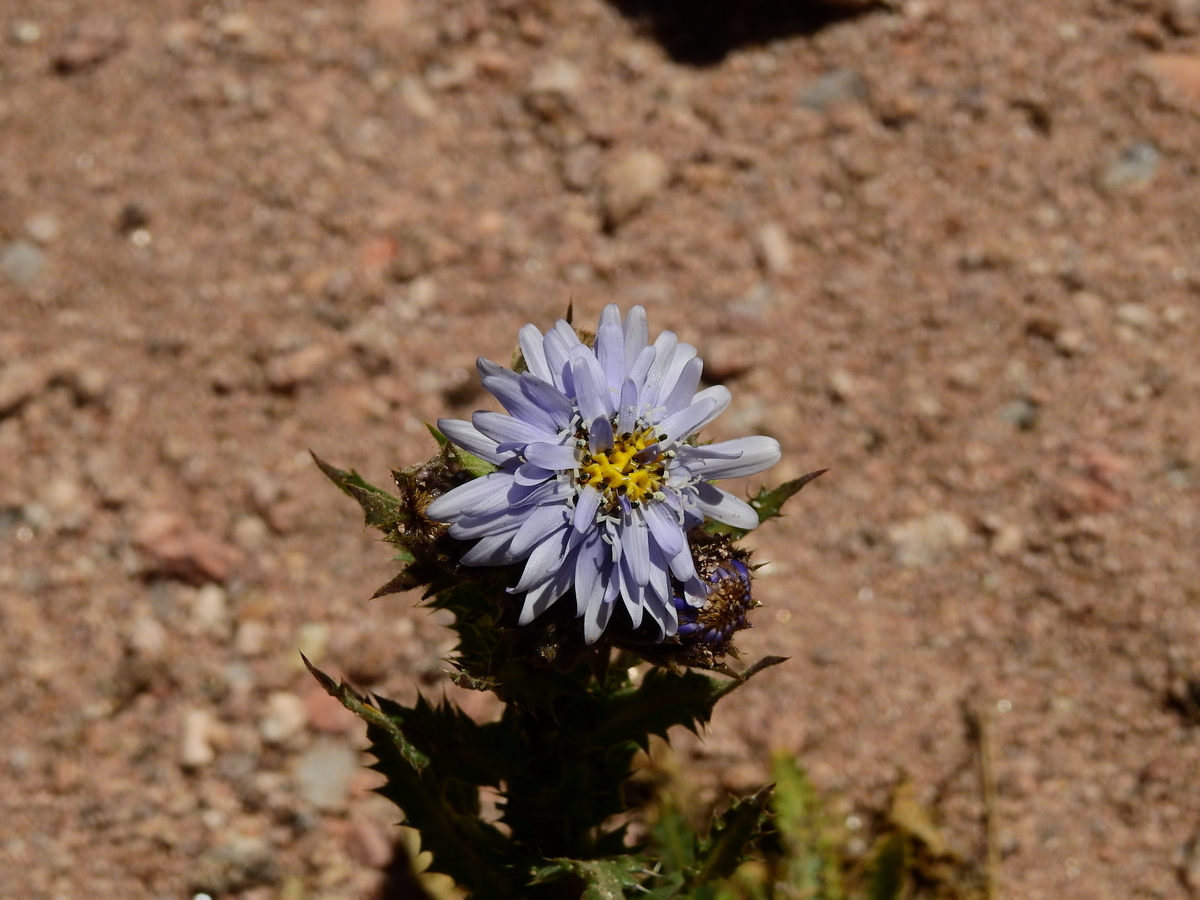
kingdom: Plantae
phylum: Tracheophyta
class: Magnoliopsida
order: Asterales
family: Asteraceae
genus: Perezia
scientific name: Perezia multiflora
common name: Perezia
